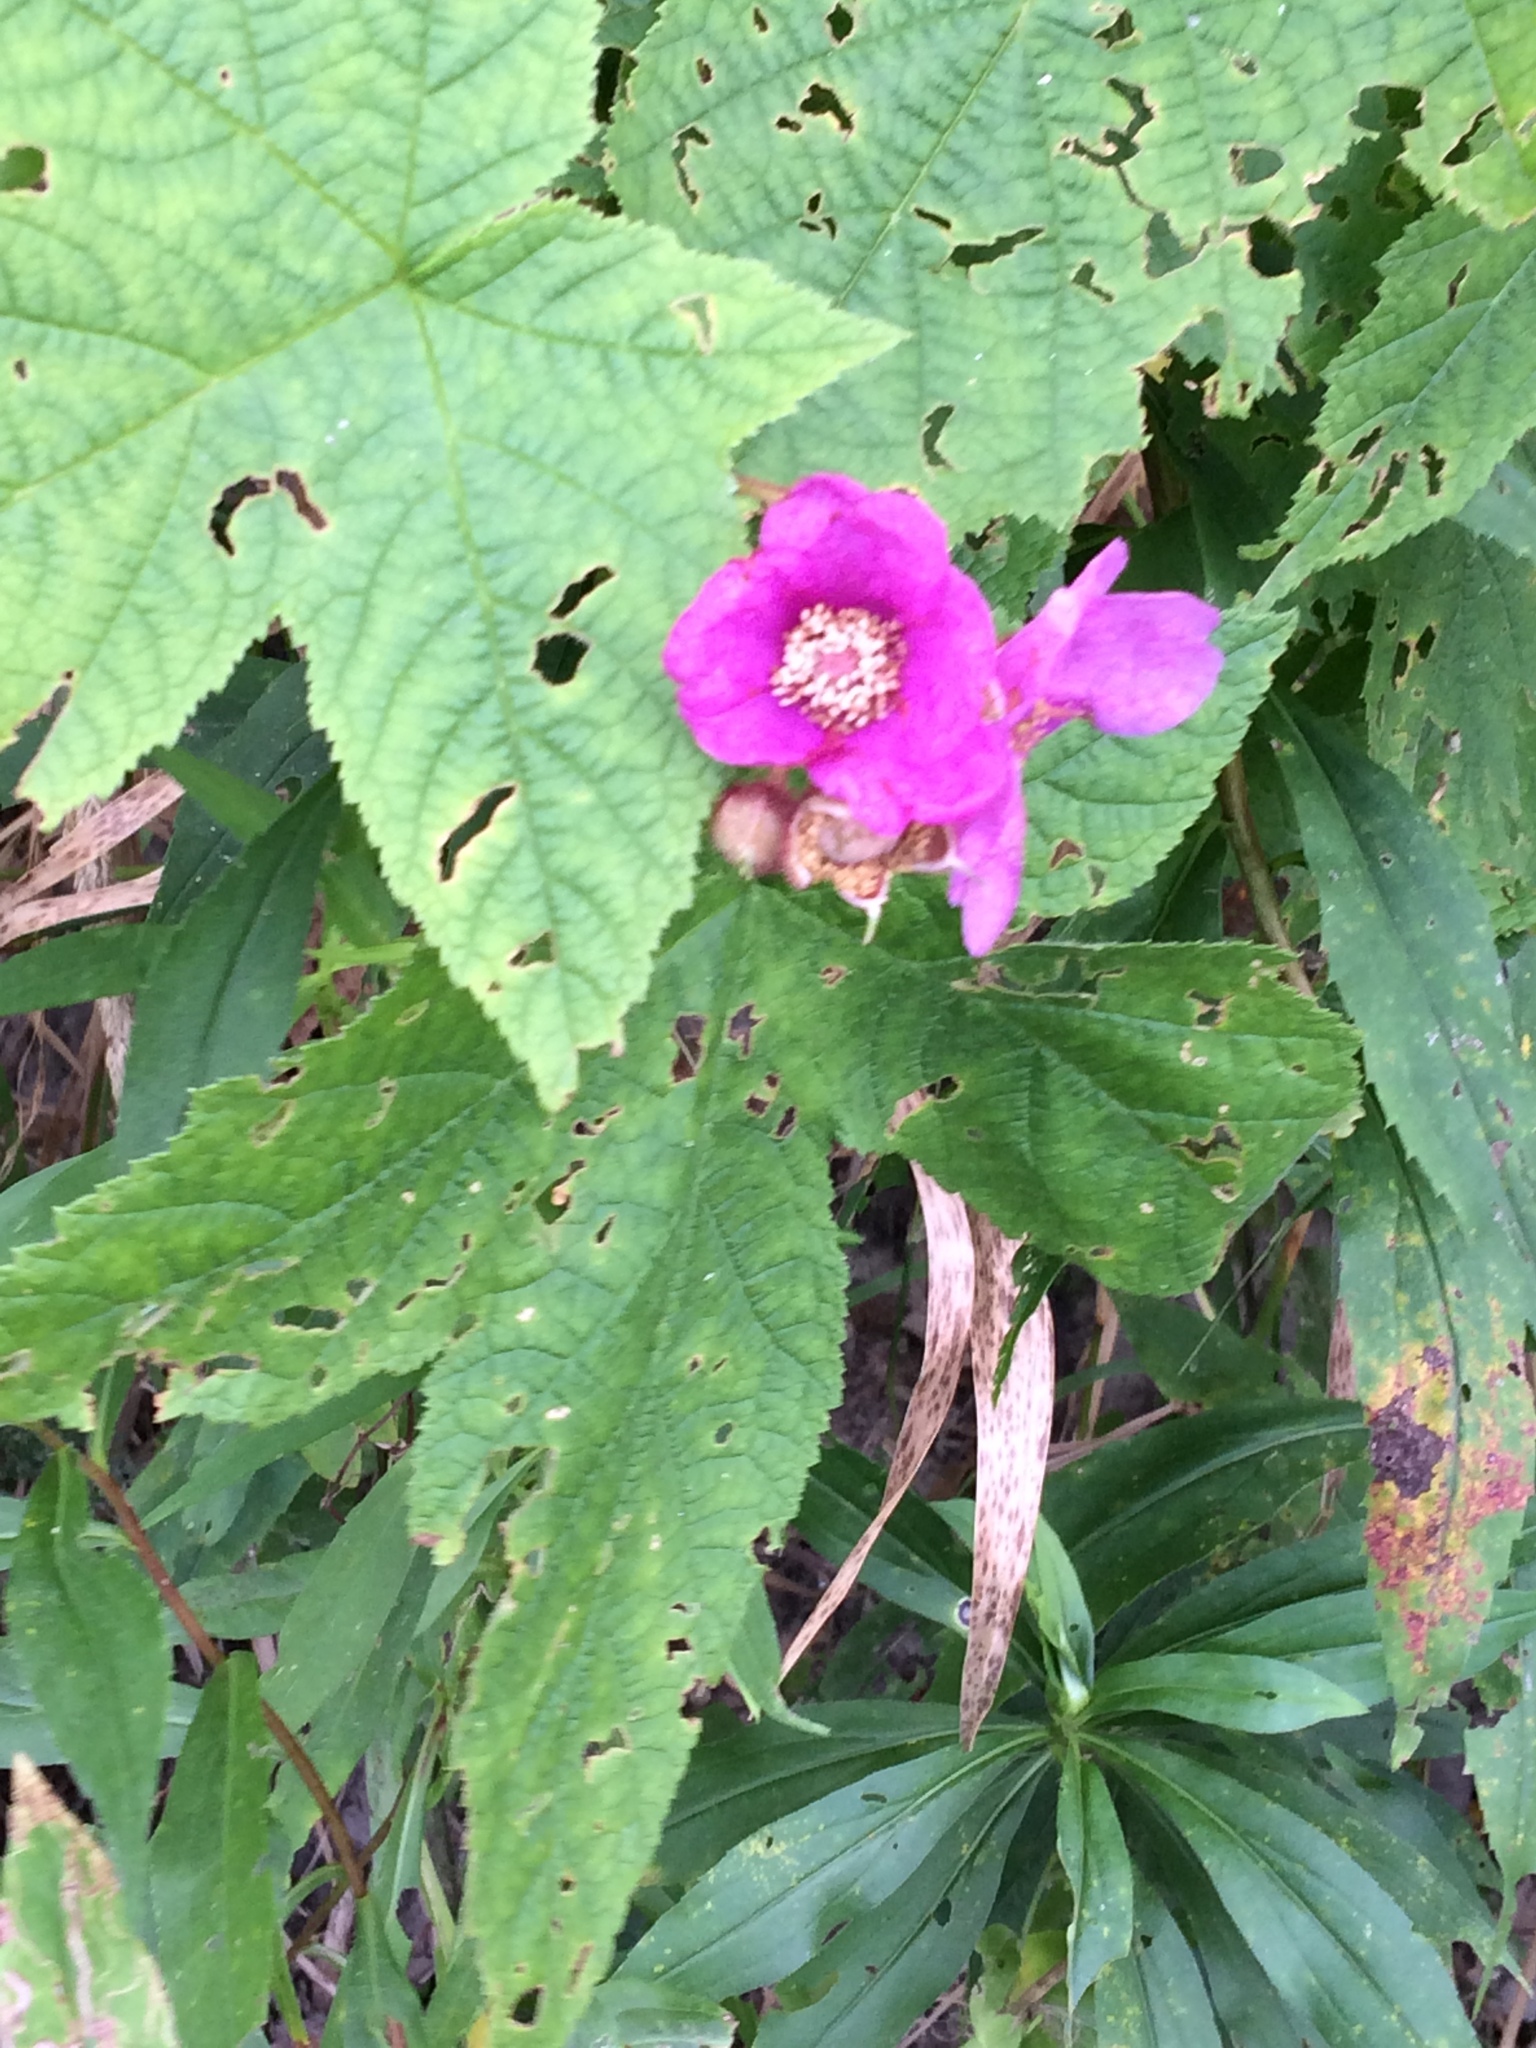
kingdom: Plantae
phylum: Tracheophyta
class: Magnoliopsida
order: Rosales
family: Rosaceae
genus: Rubus
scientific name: Rubus odoratus
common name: Purple-flowered raspberry
